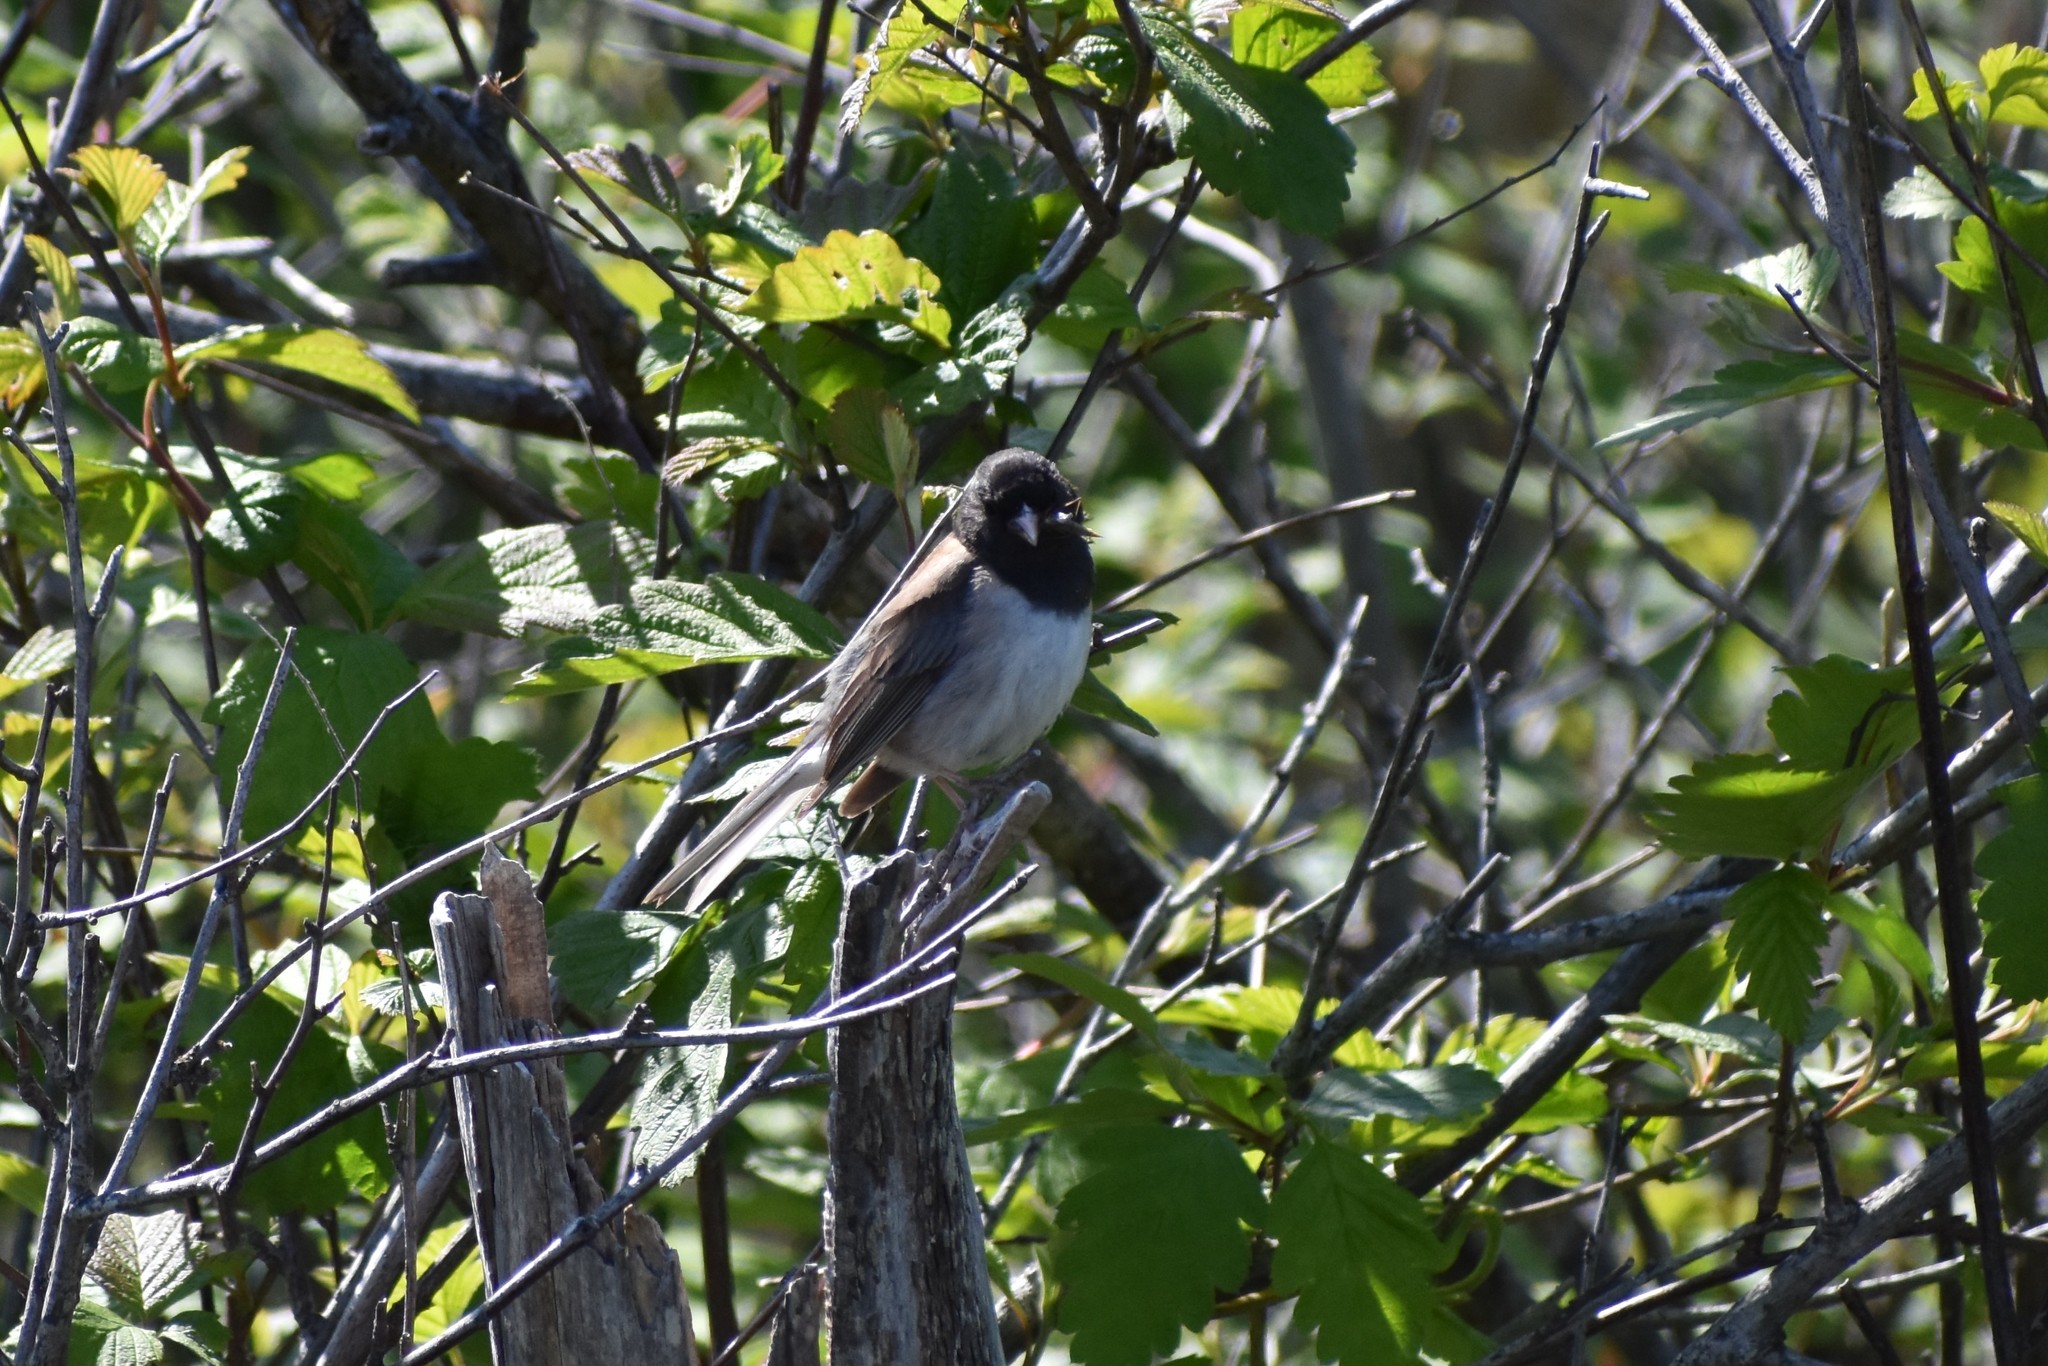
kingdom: Animalia
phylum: Chordata
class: Aves
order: Passeriformes
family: Passerellidae
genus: Junco
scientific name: Junco hyemalis
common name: Dark-eyed junco
